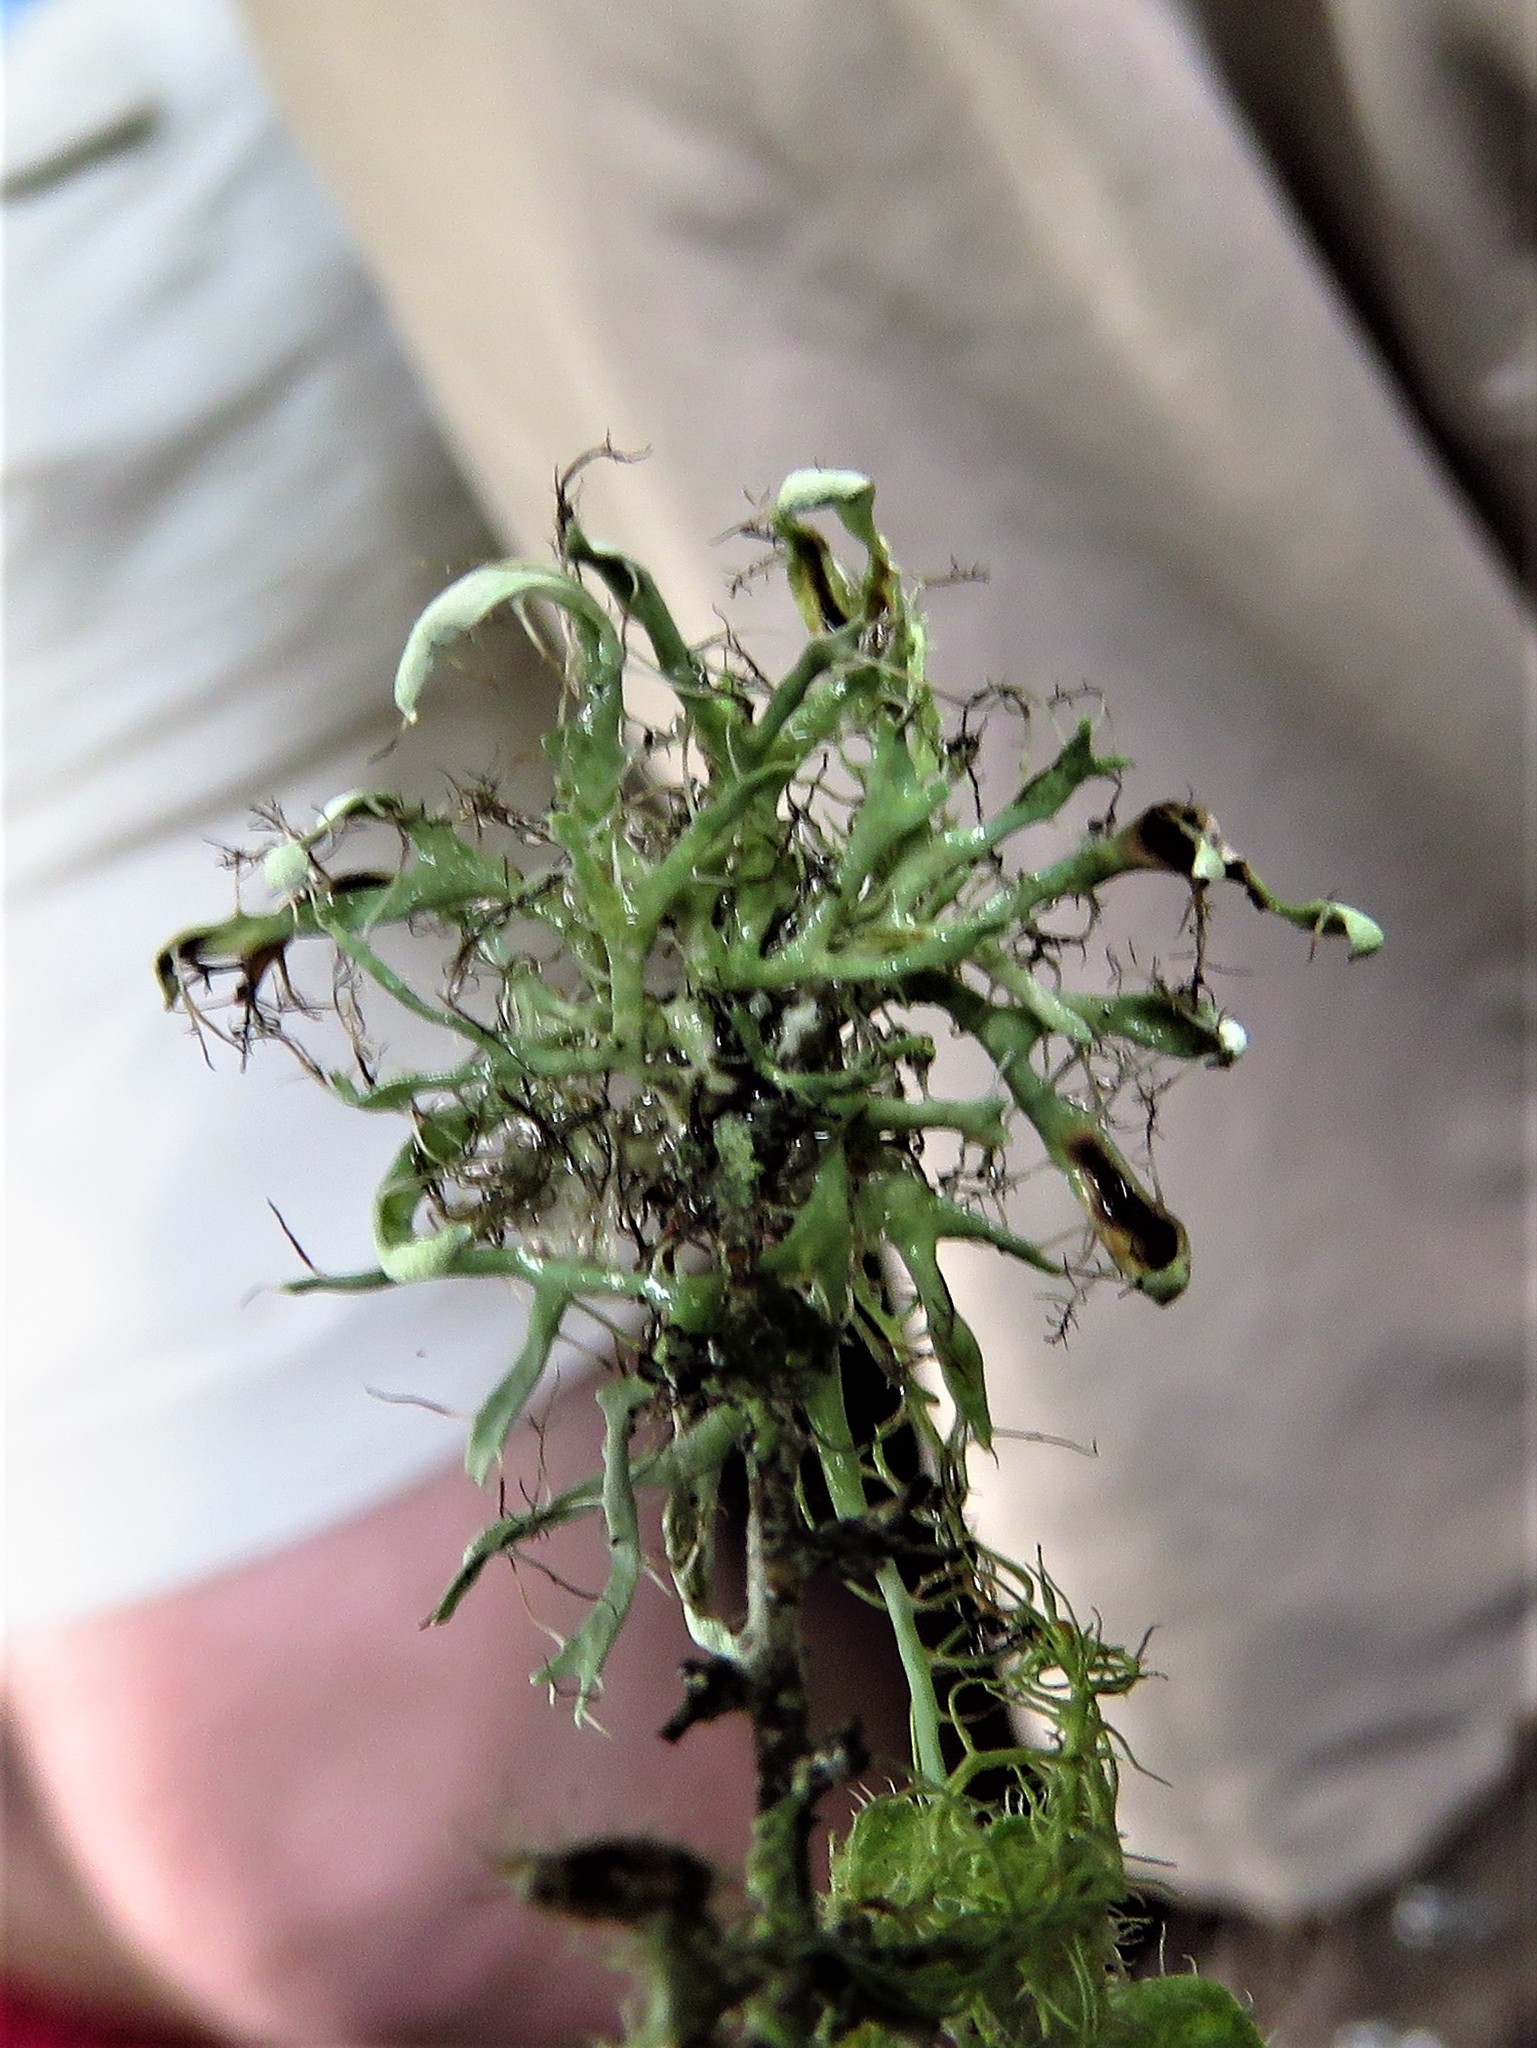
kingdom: Fungi
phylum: Ascomycota
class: Lecanoromycetes
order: Caliciales
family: Physciaceae
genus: Leucodermia
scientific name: Leucodermia leucomelos
